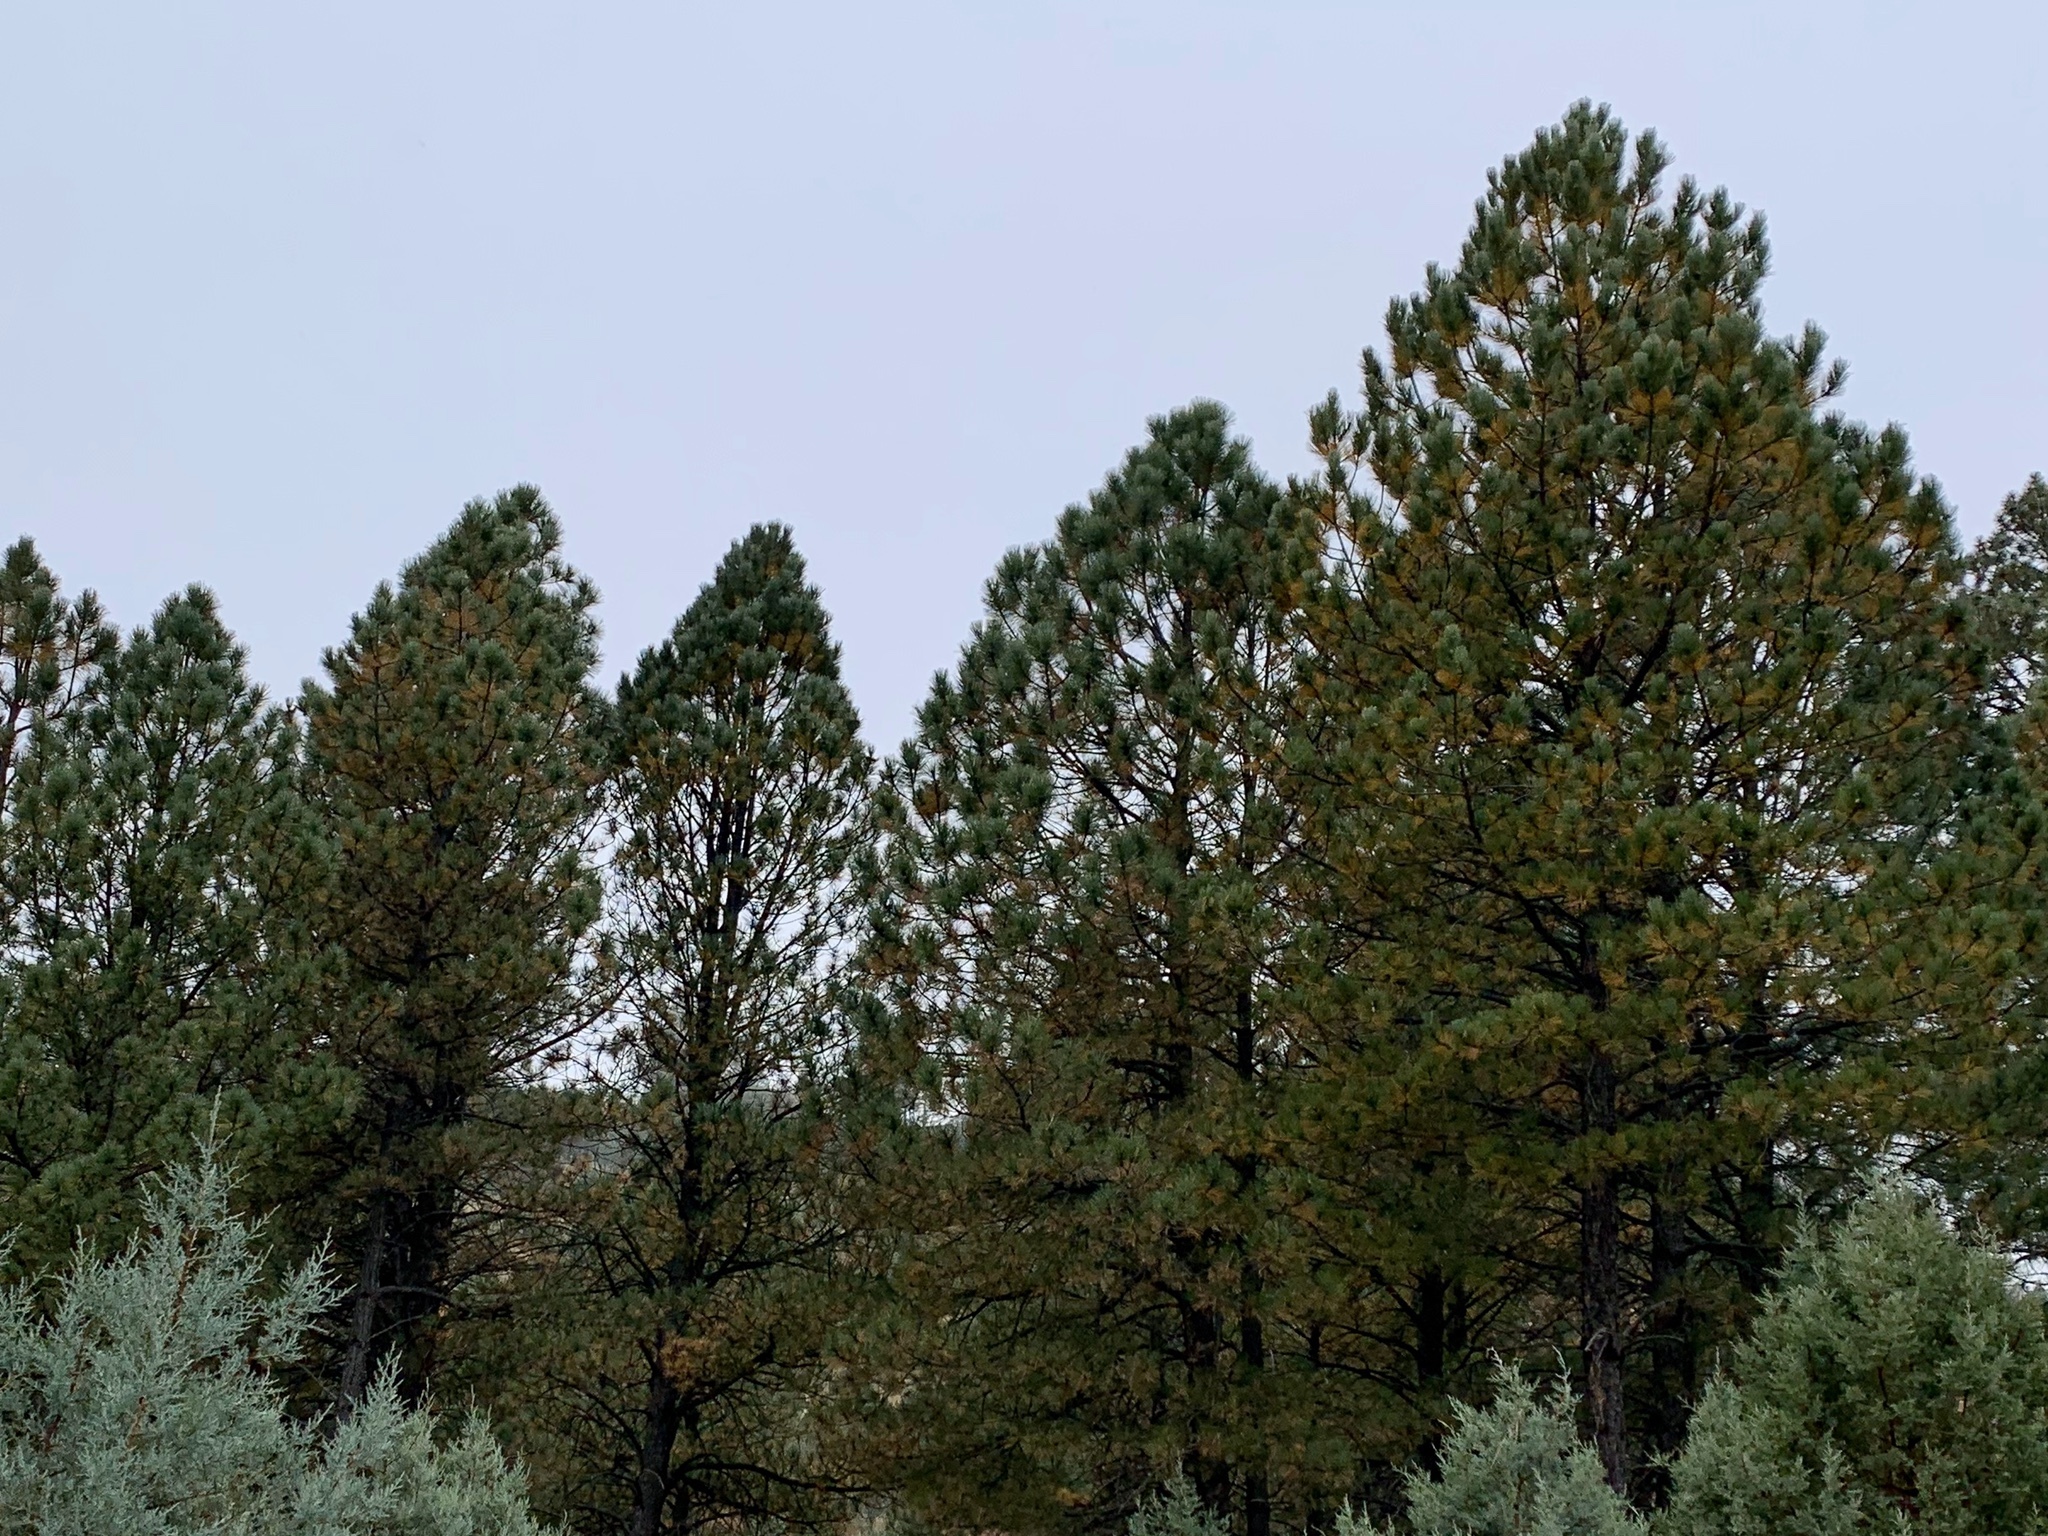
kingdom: Plantae
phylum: Tracheophyta
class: Pinopsida
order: Pinales
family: Pinaceae
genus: Pinus
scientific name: Pinus ponderosa
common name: Western yellow-pine
